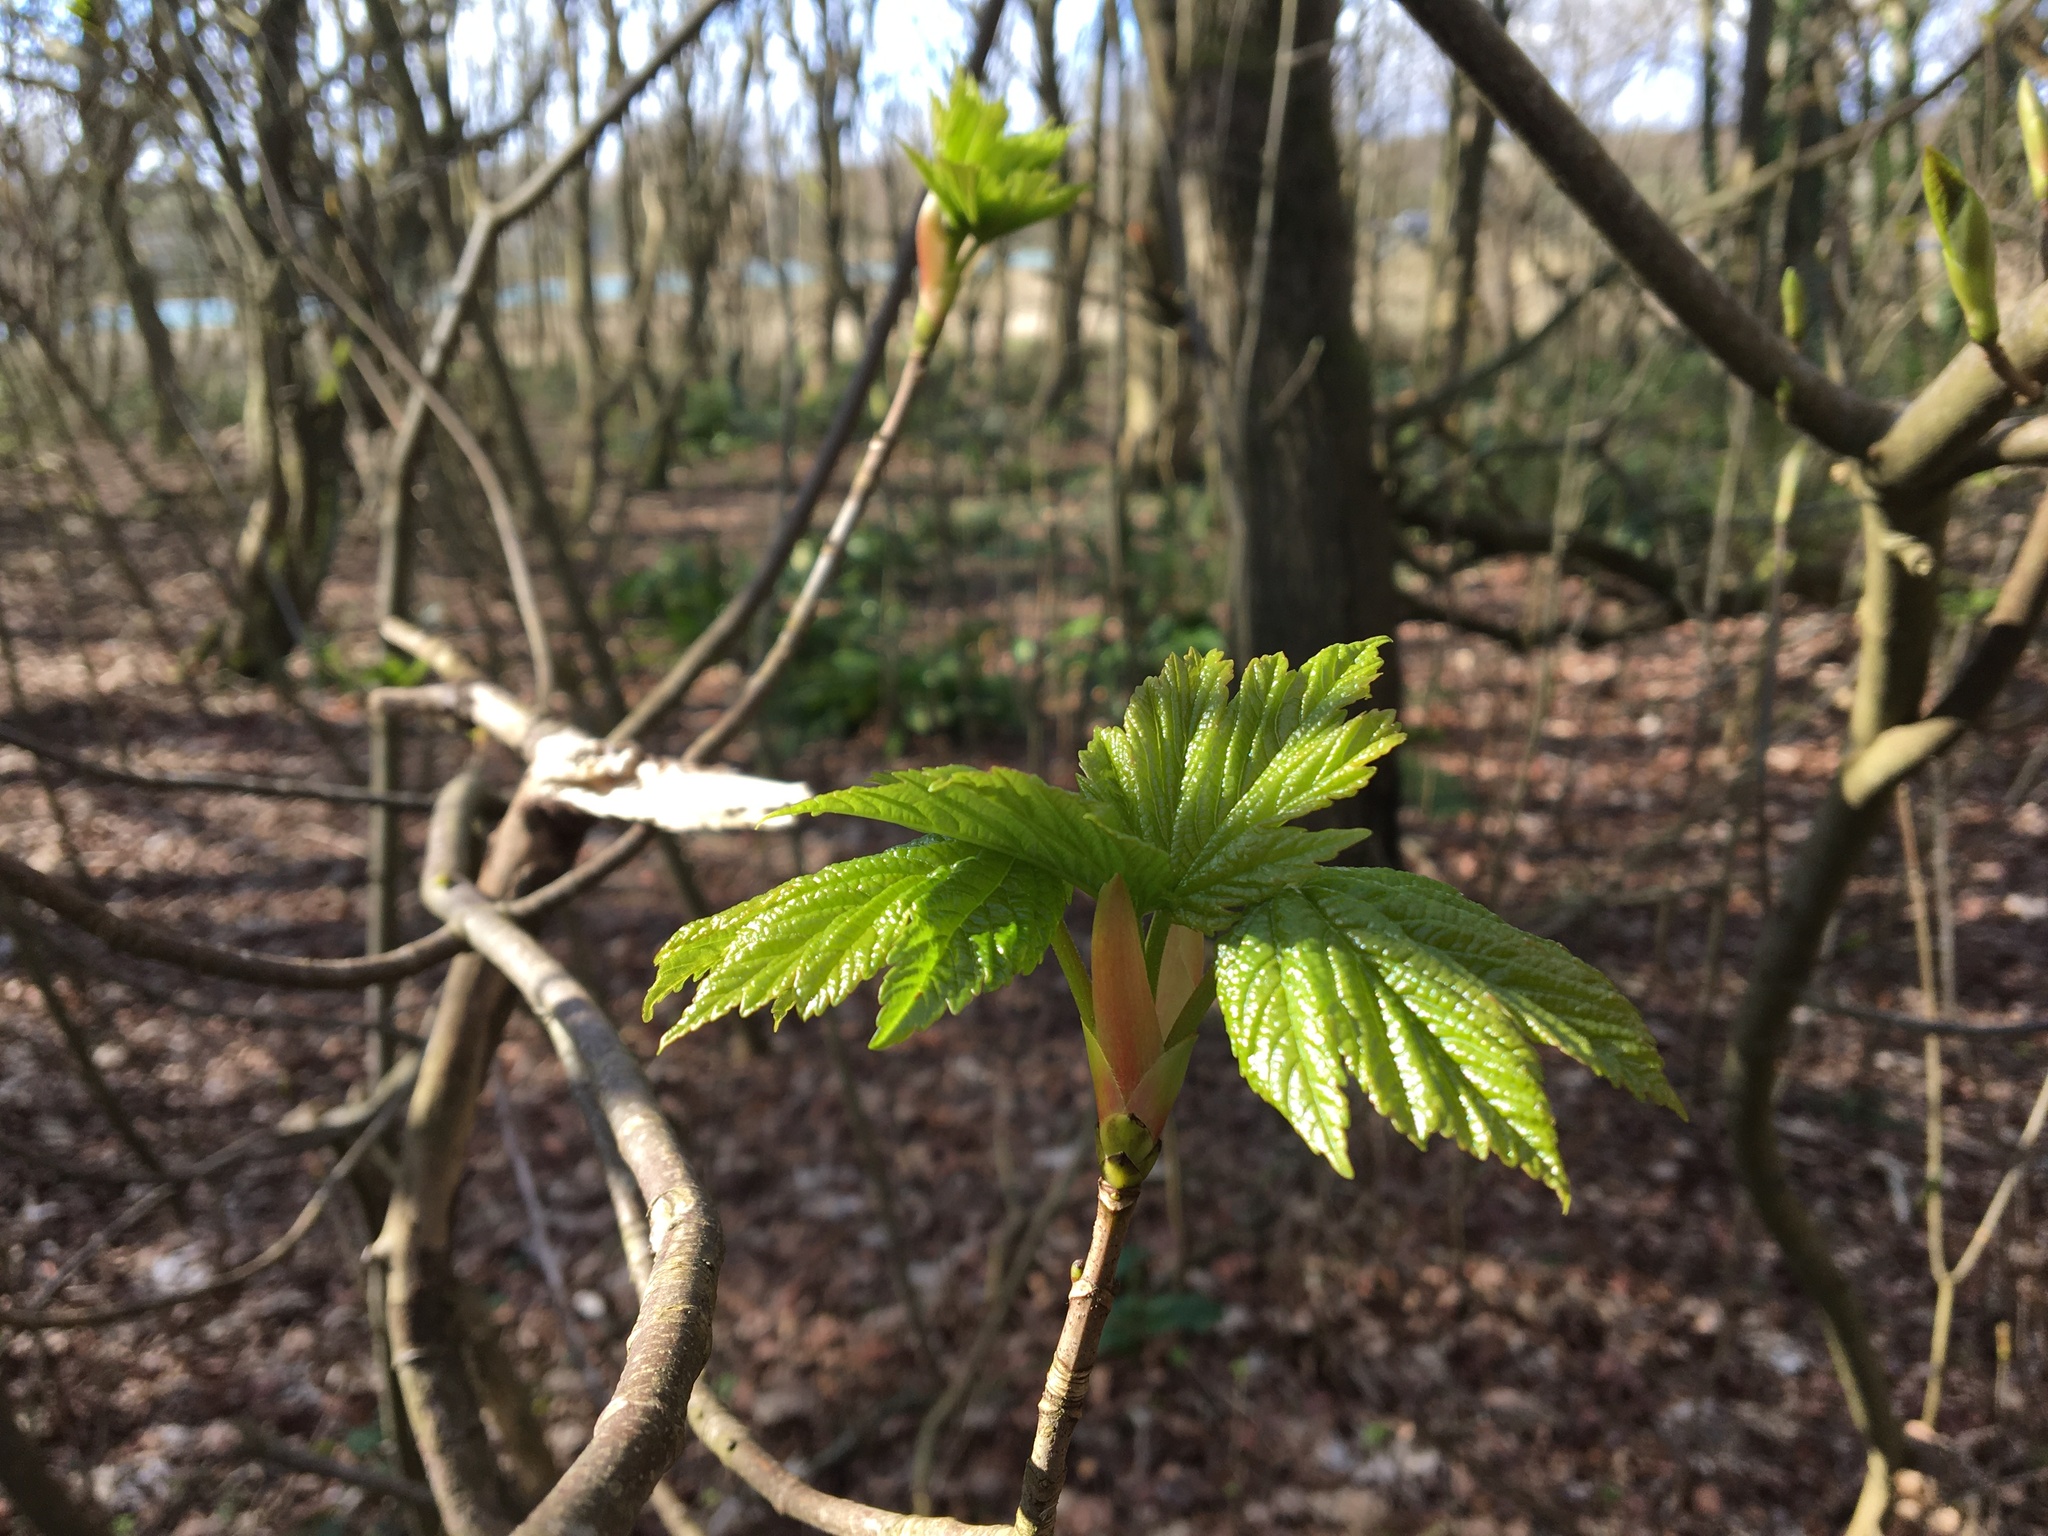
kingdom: Plantae
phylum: Tracheophyta
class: Magnoliopsida
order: Sapindales
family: Sapindaceae
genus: Acer
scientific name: Acer pseudoplatanus
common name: Sycamore
